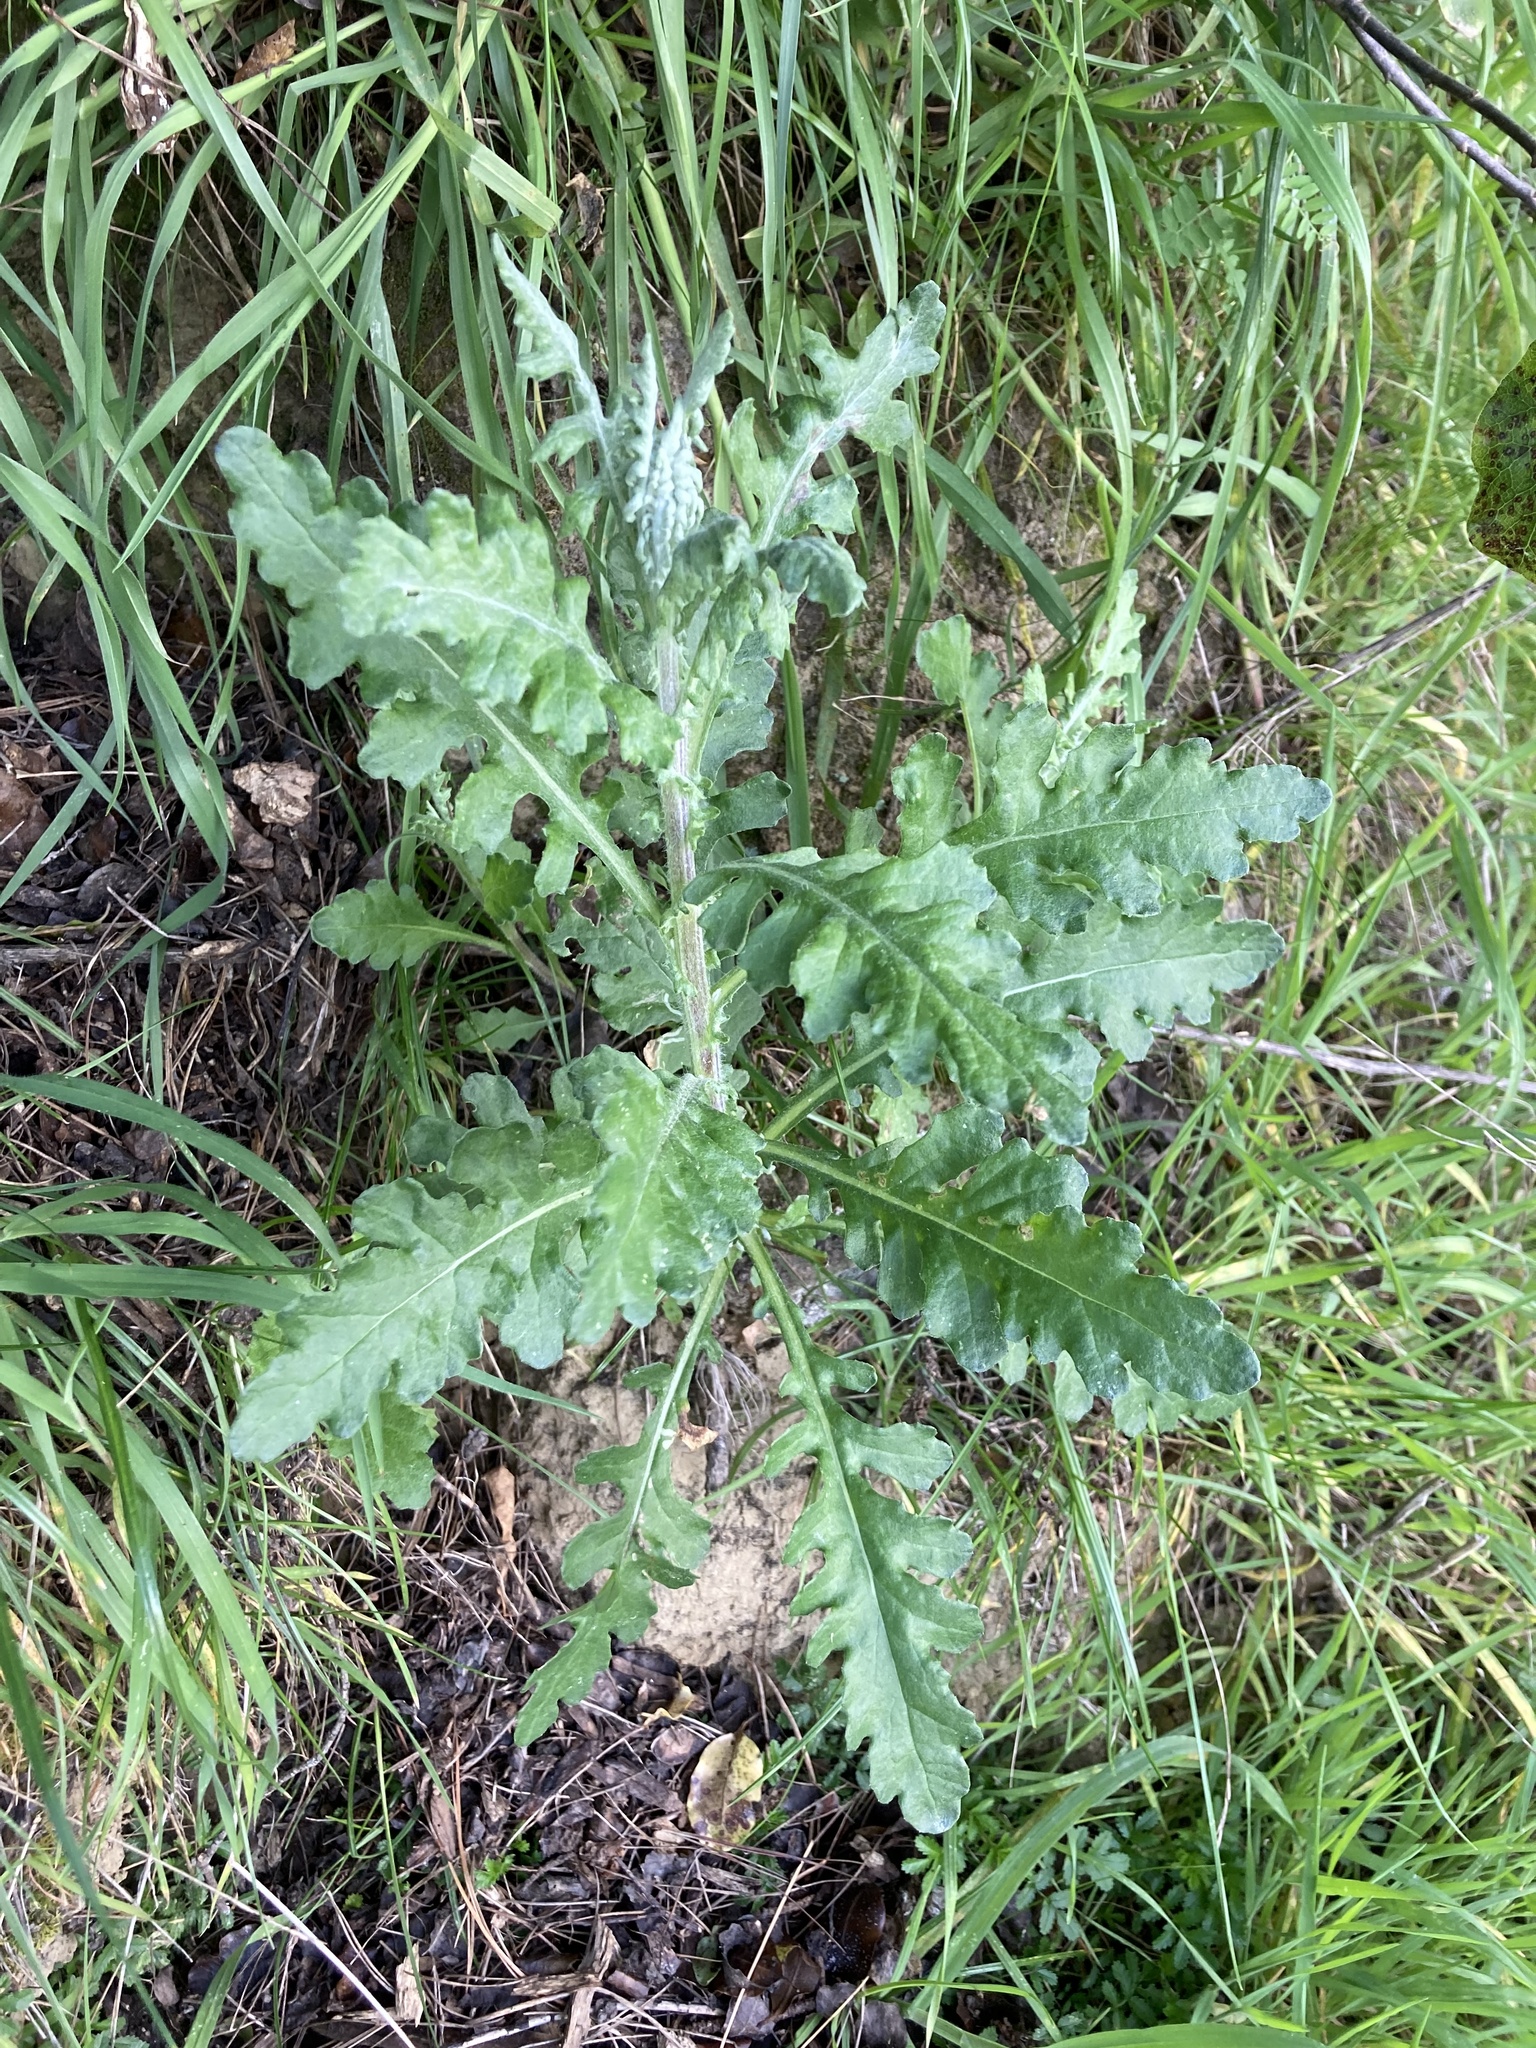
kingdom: Plantae
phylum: Tracheophyta
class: Magnoliopsida
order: Asterales
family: Asteraceae
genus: Senecio
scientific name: Senecio glomeratus
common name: Cutleaf burnweed
